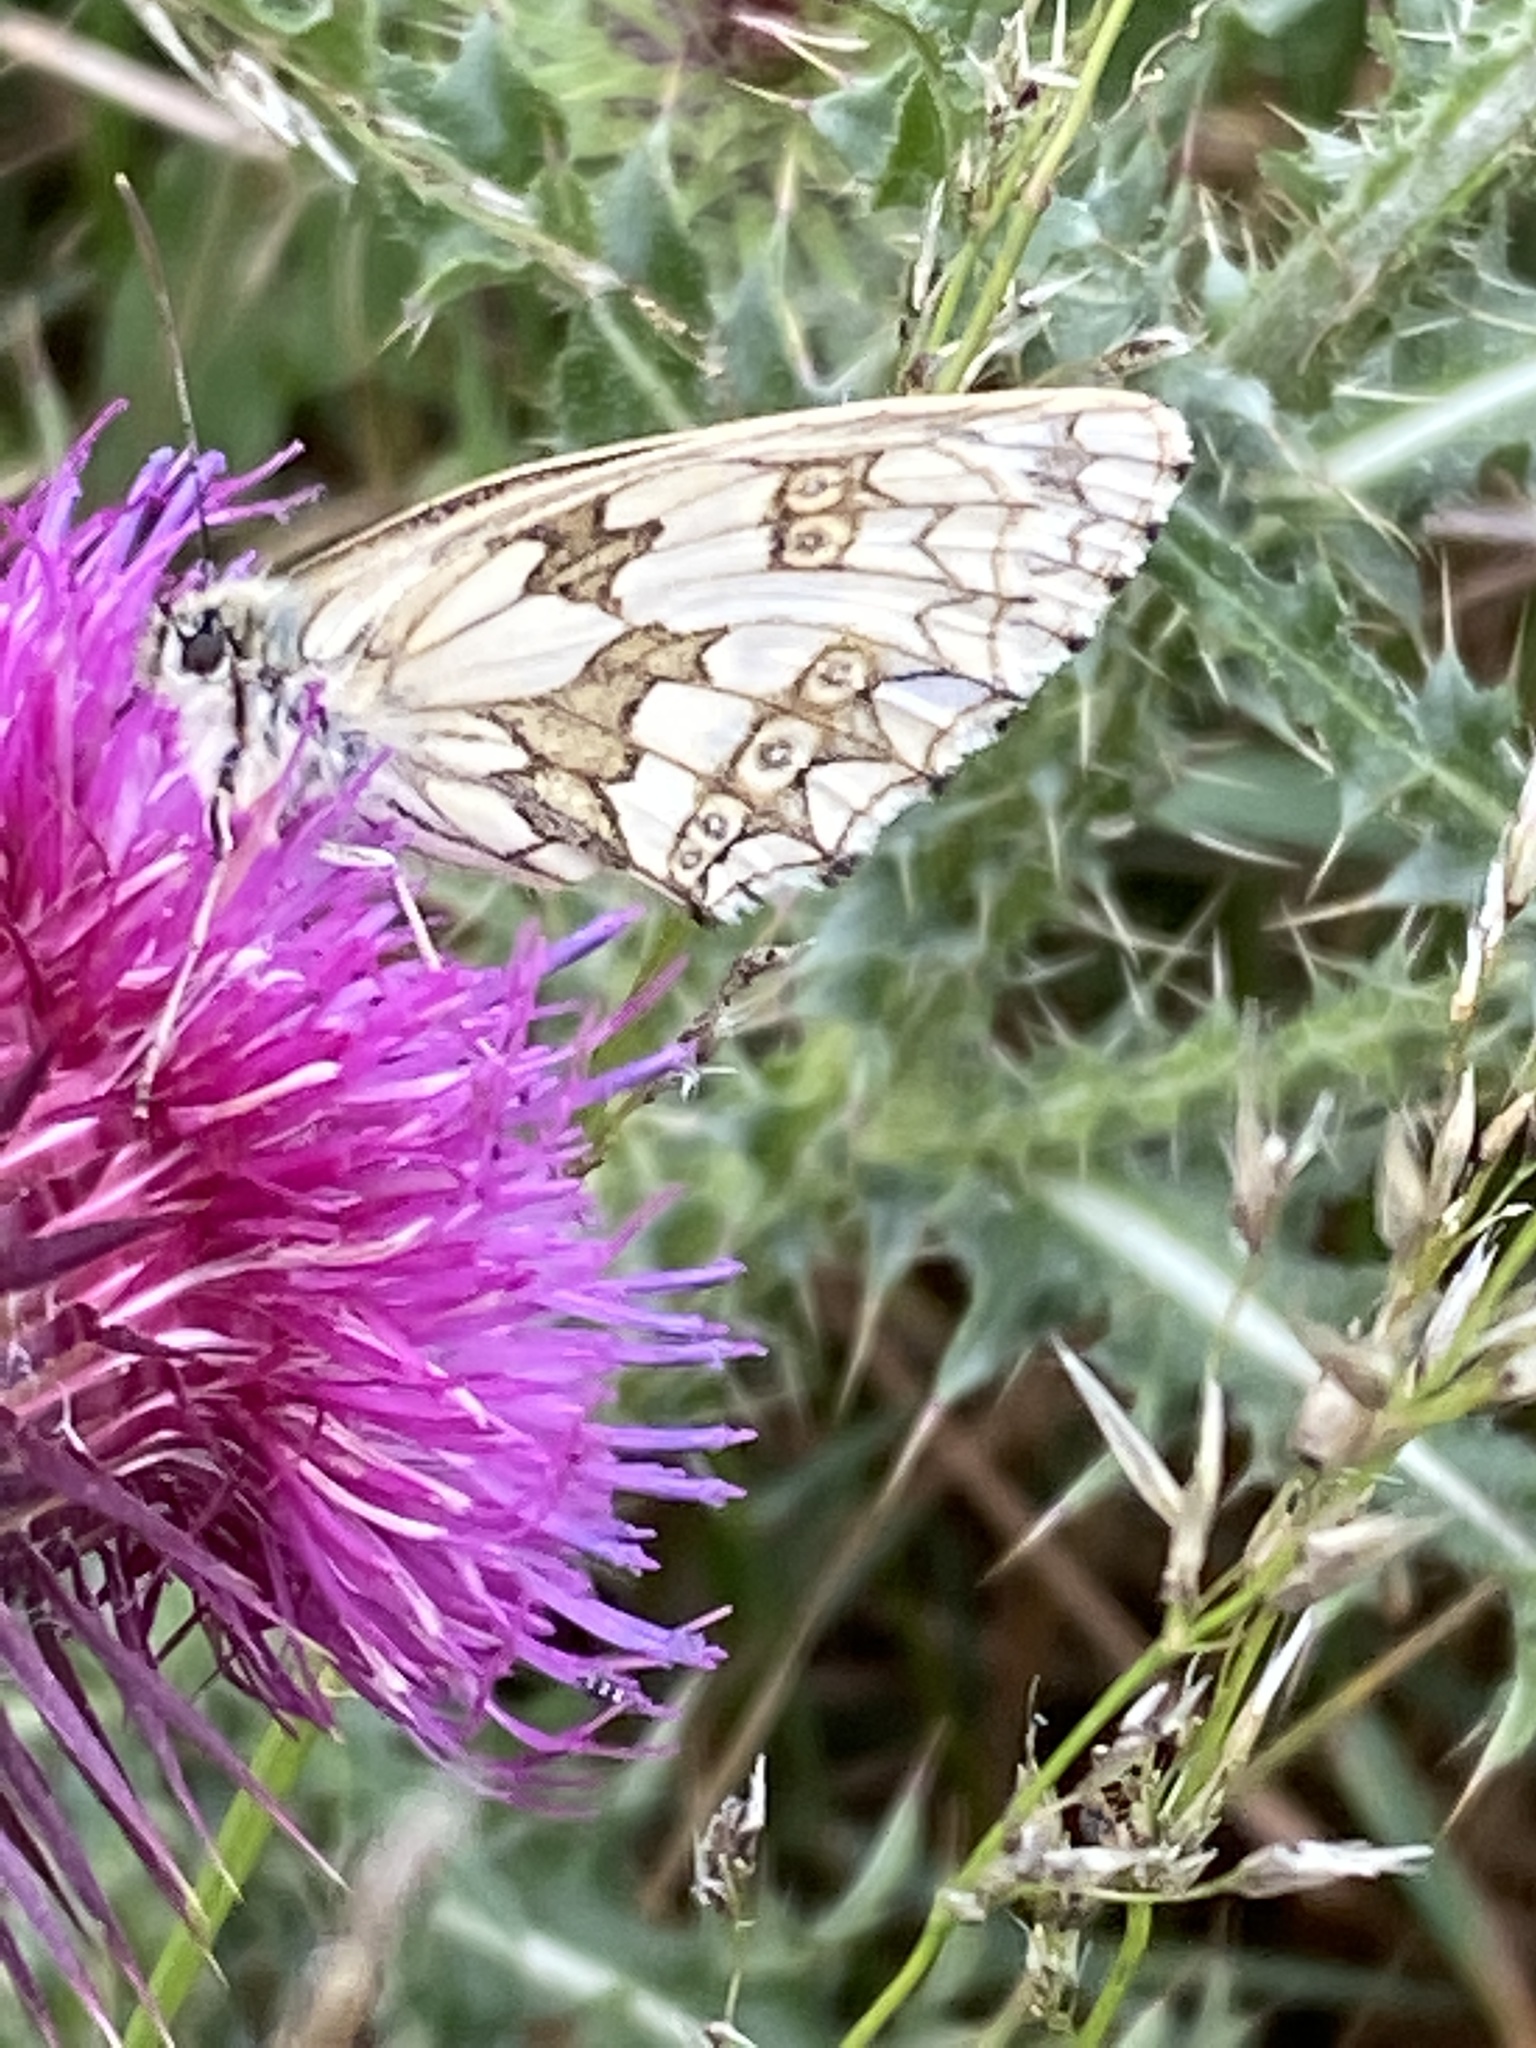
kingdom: Animalia
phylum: Arthropoda
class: Insecta
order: Lepidoptera
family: Nymphalidae
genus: Melanargia
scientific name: Melanargia galathea
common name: Marbled white
